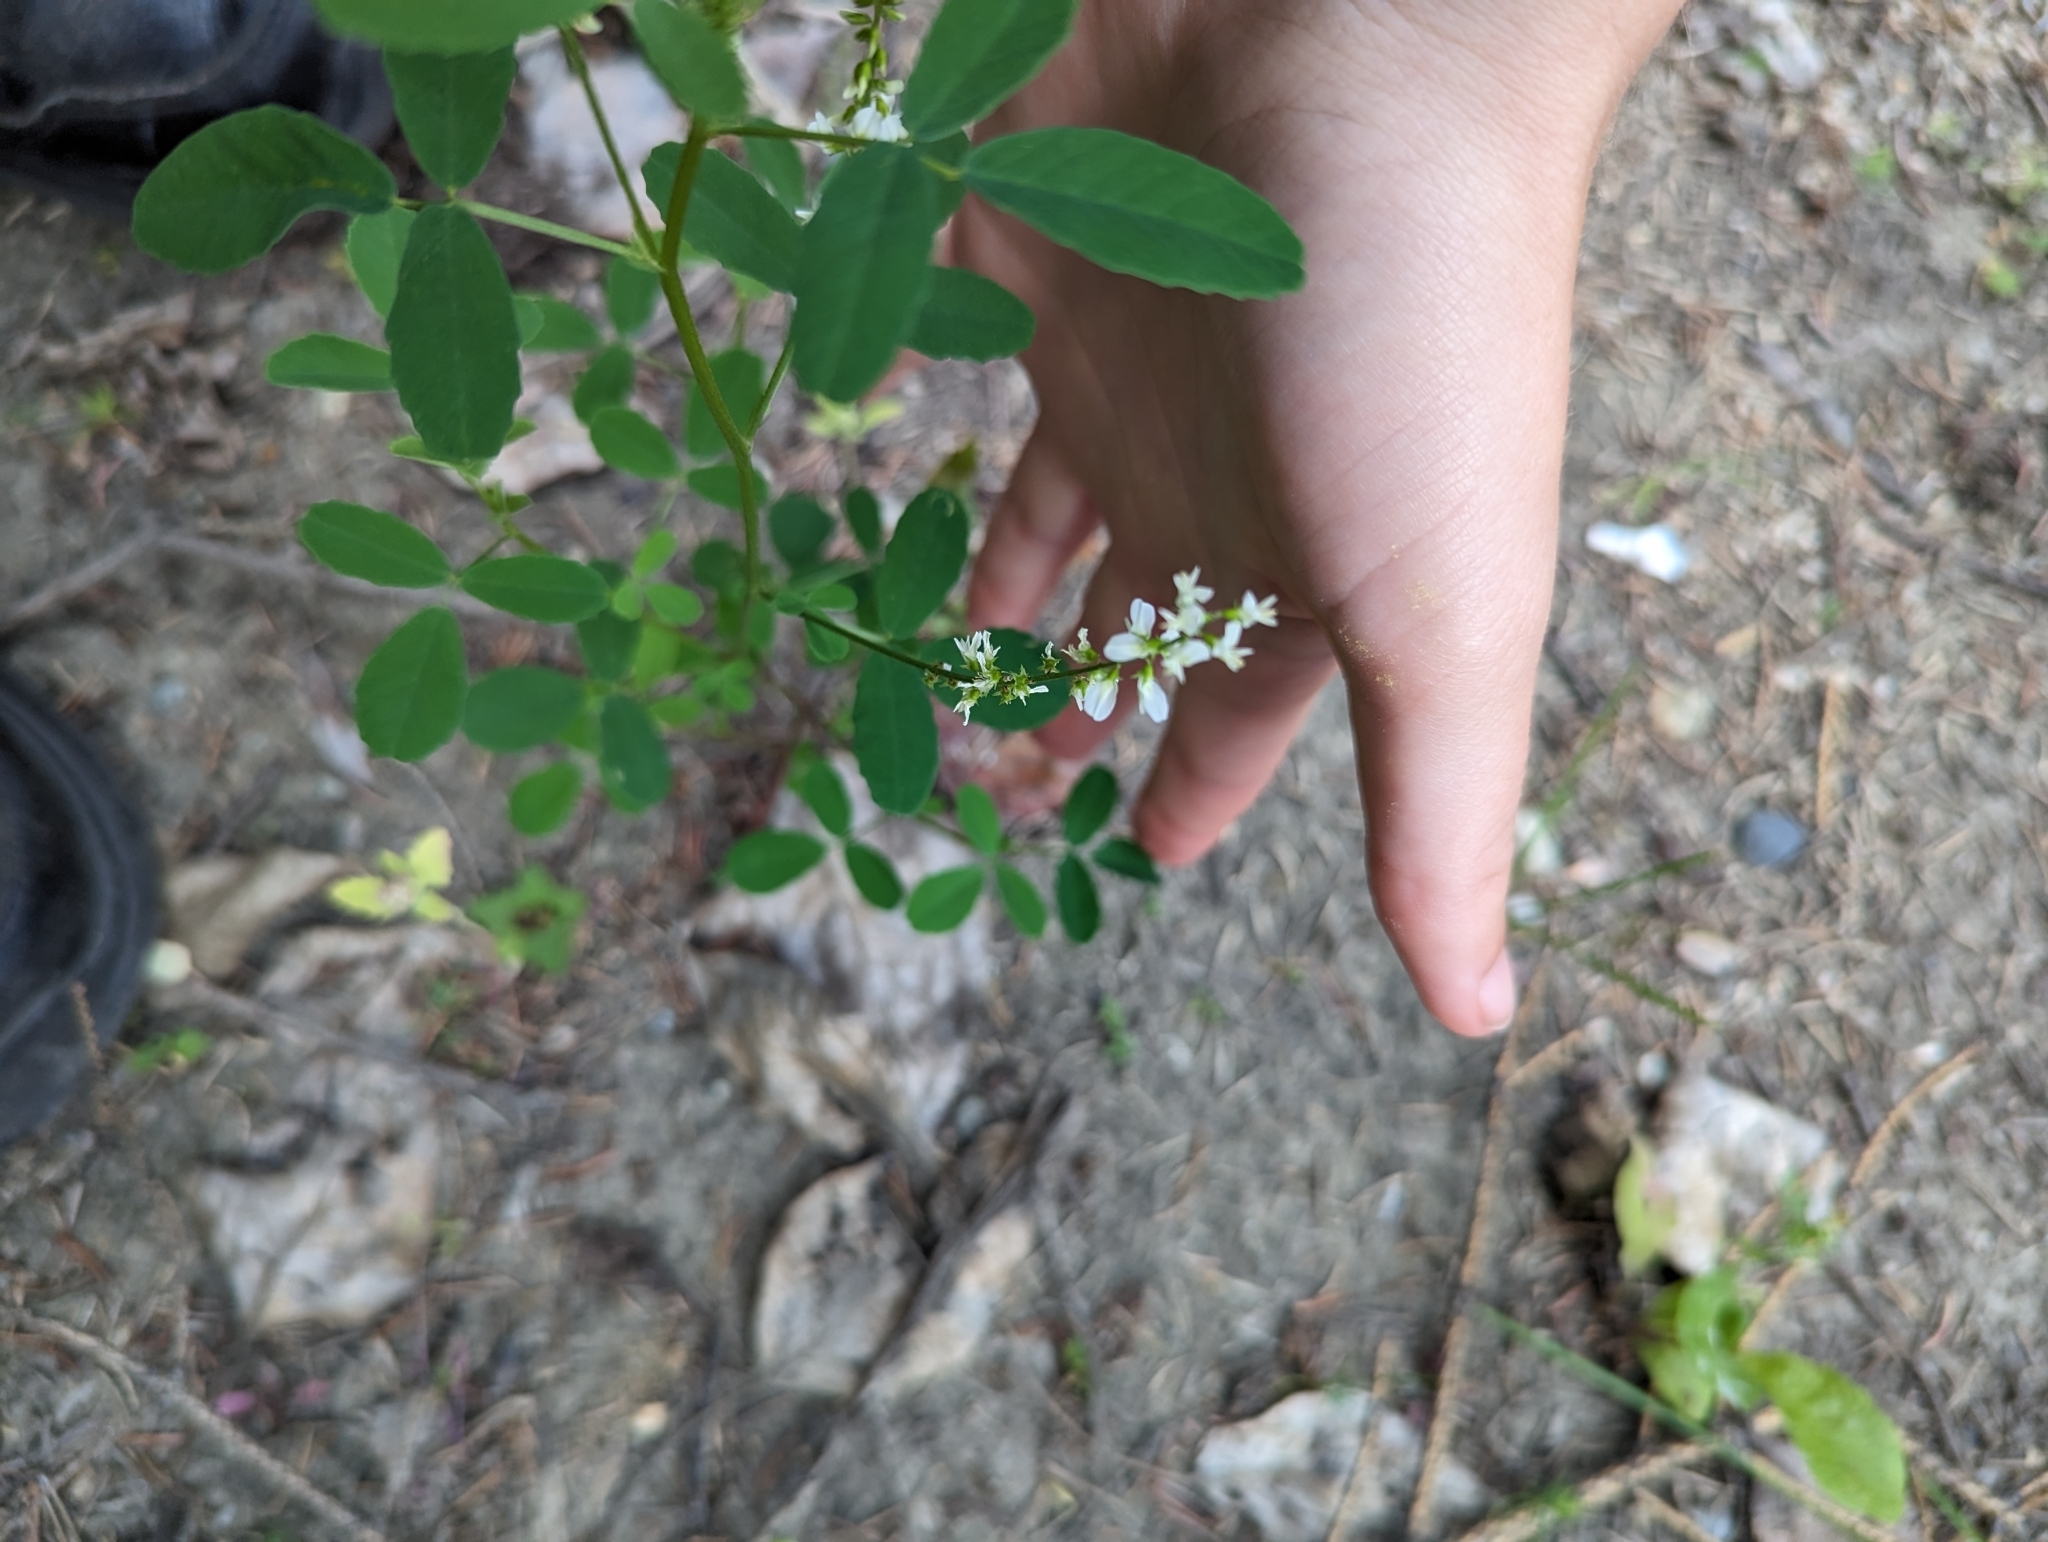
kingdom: Plantae
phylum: Tracheophyta
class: Magnoliopsida
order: Fabales
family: Fabaceae
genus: Melilotus
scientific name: Melilotus albus
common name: White melilot
